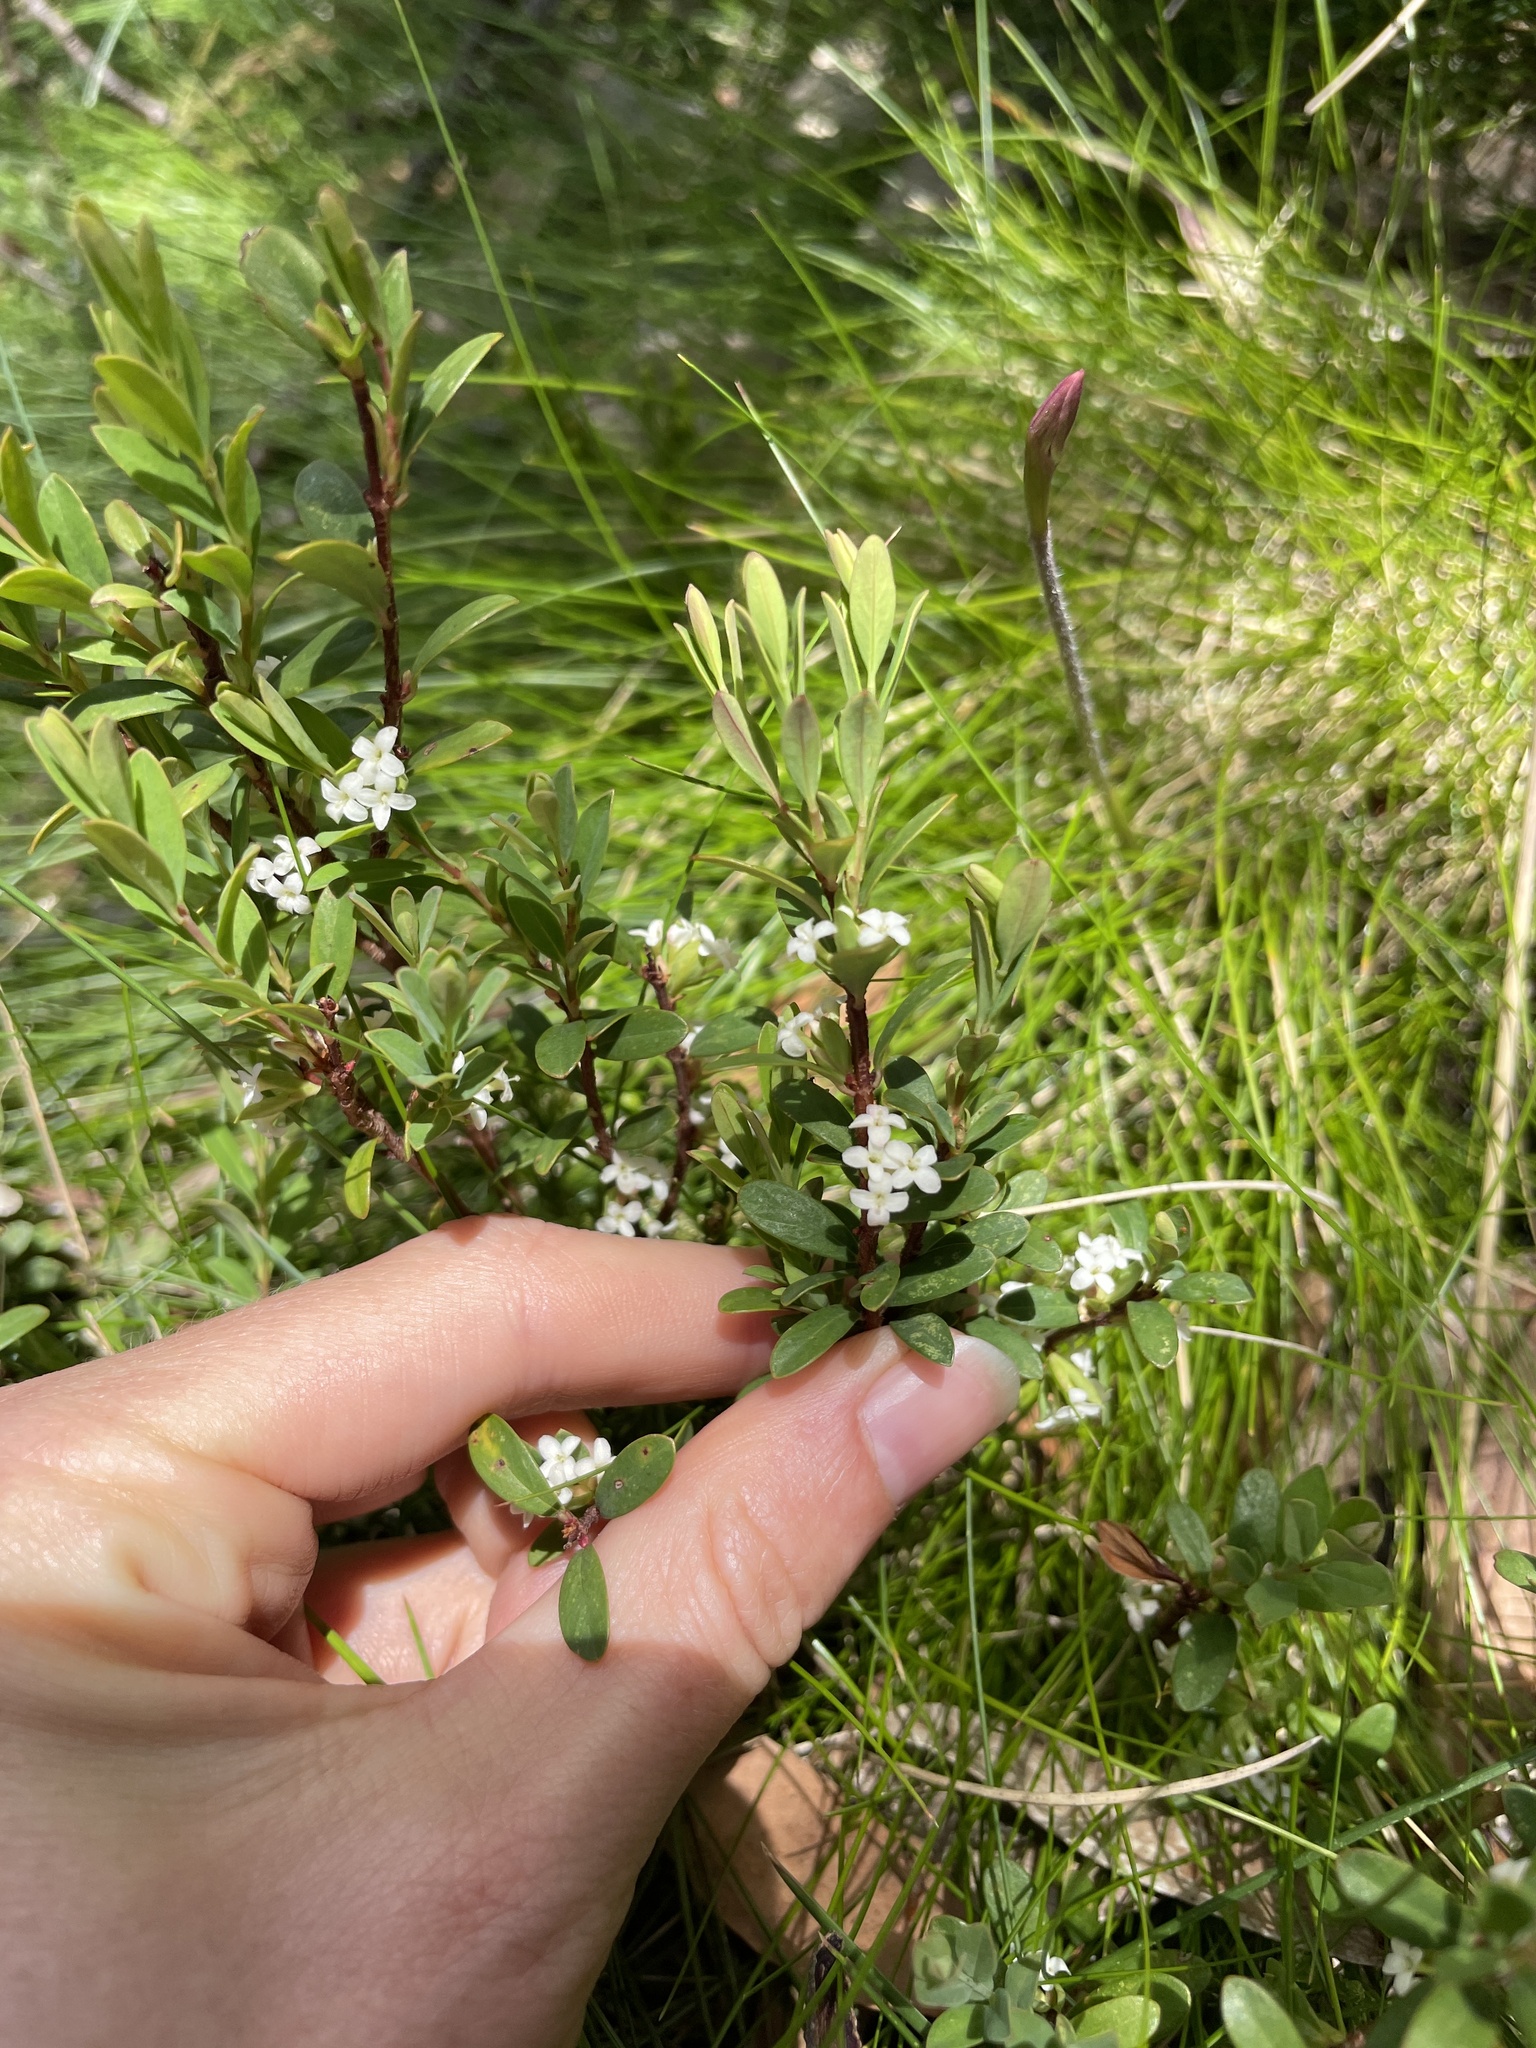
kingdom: Plantae
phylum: Tracheophyta
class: Magnoliopsida
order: Malvales
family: Thymelaeaceae
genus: Pimelea
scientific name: Pimelea axiflora
